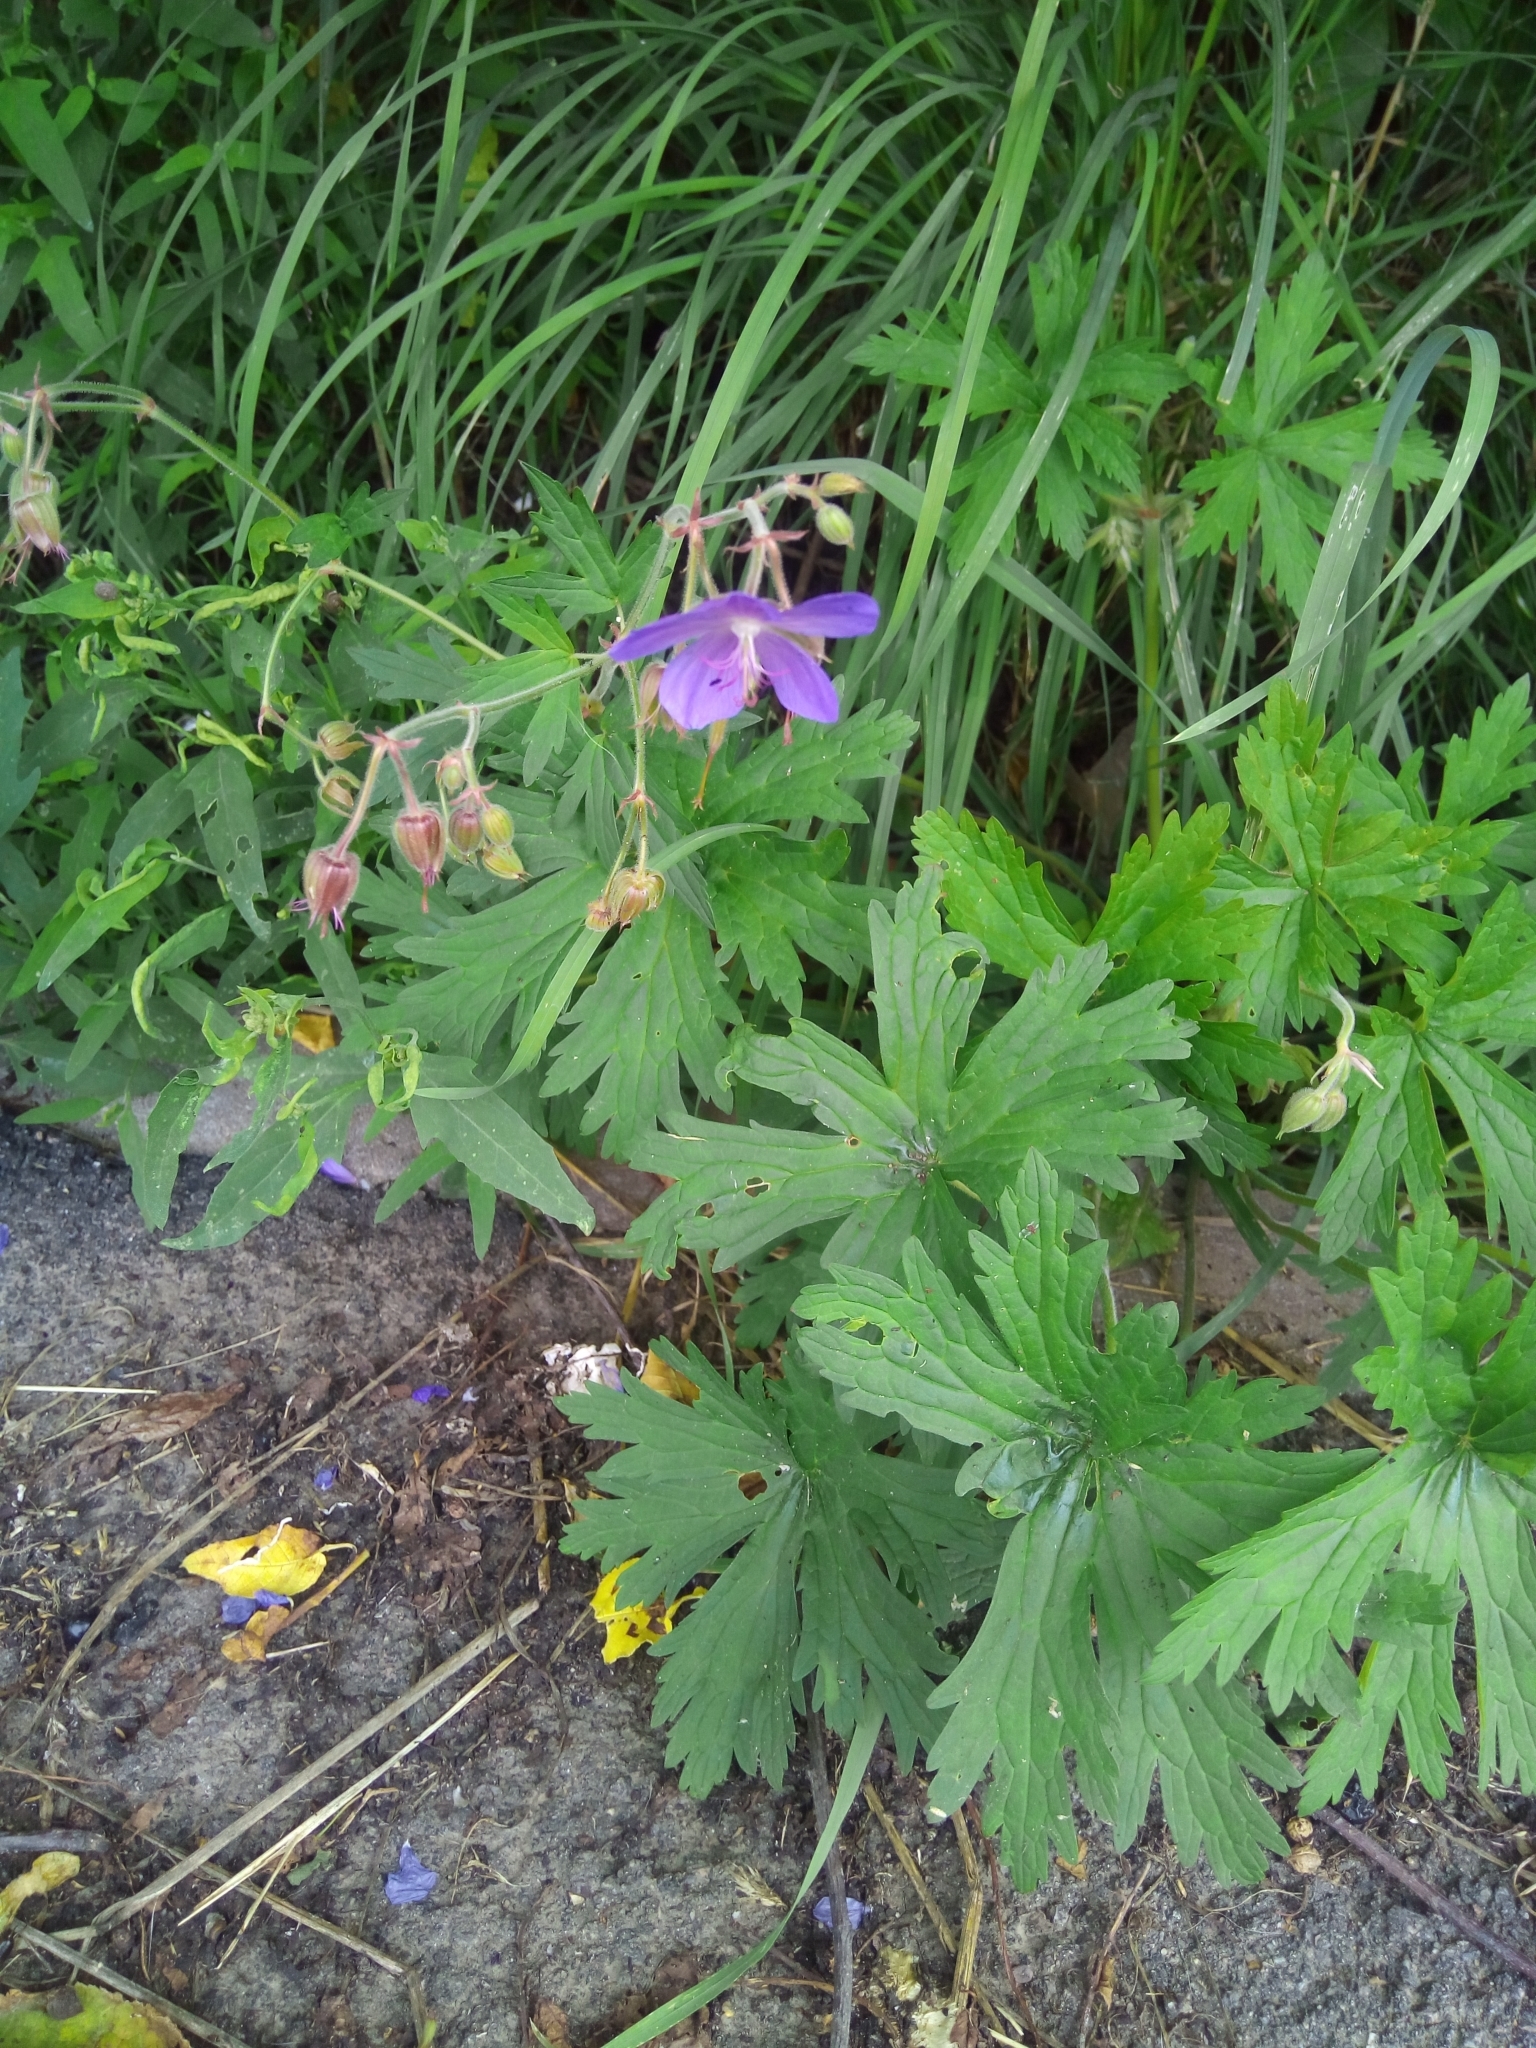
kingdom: Plantae
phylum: Tracheophyta
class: Magnoliopsida
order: Geraniales
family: Geraniaceae
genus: Geranium
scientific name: Geranium pratense
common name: Meadow crane's-bill
